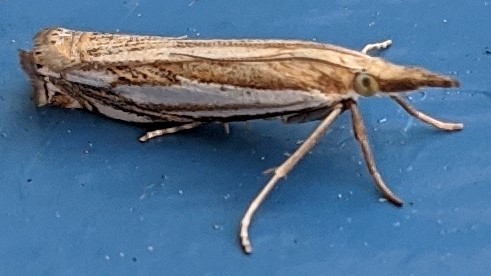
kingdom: Animalia
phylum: Arthropoda
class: Insecta
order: Lepidoptera
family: Crambidae
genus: Crambus
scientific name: Crambus saltuellus
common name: Pasture grass-veneer
